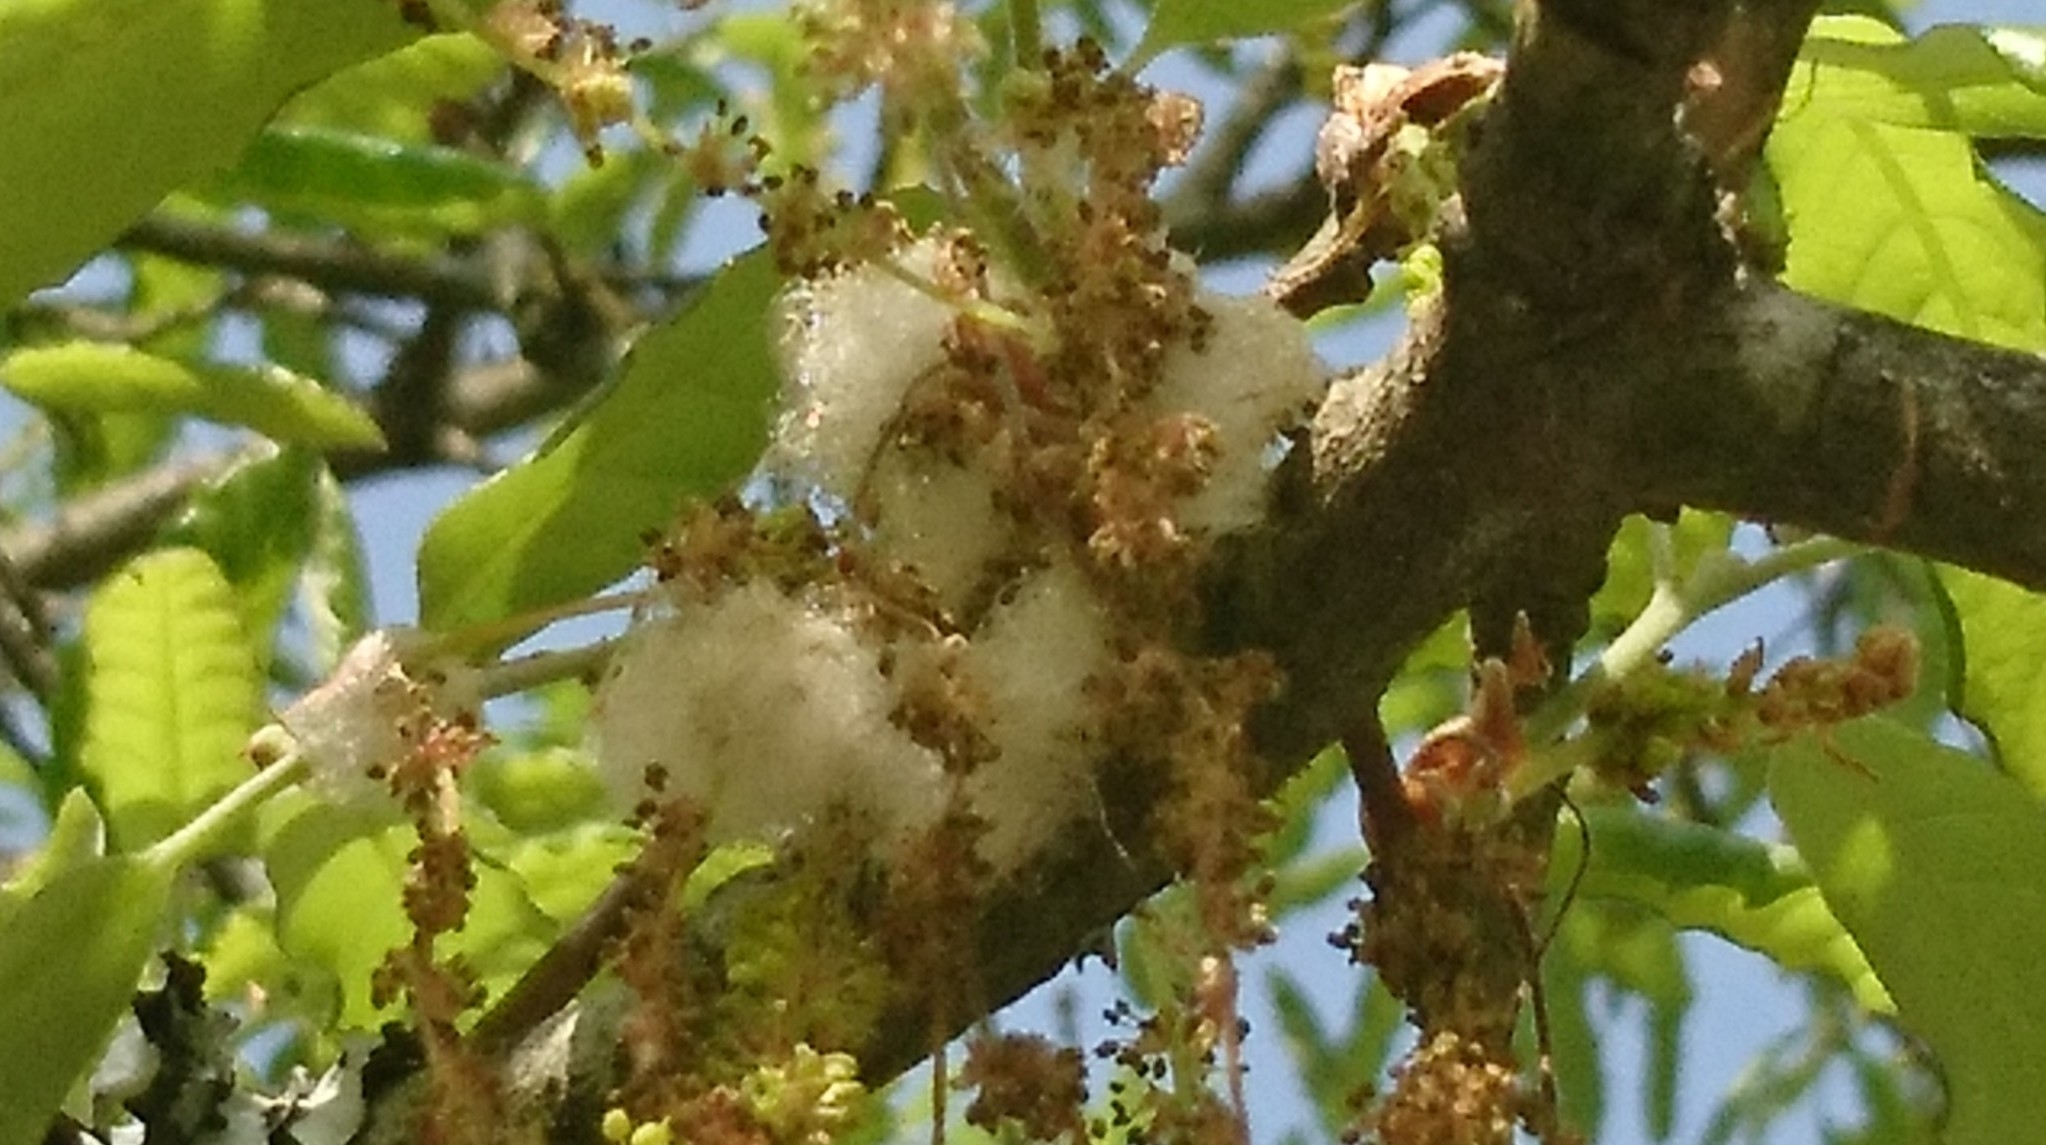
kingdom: Animalia
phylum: Arthropoda
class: Insecta
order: Hymenoptera
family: Cynipidae
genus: Andricus
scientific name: Andricus quercusramuli
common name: Cottonwool gall
